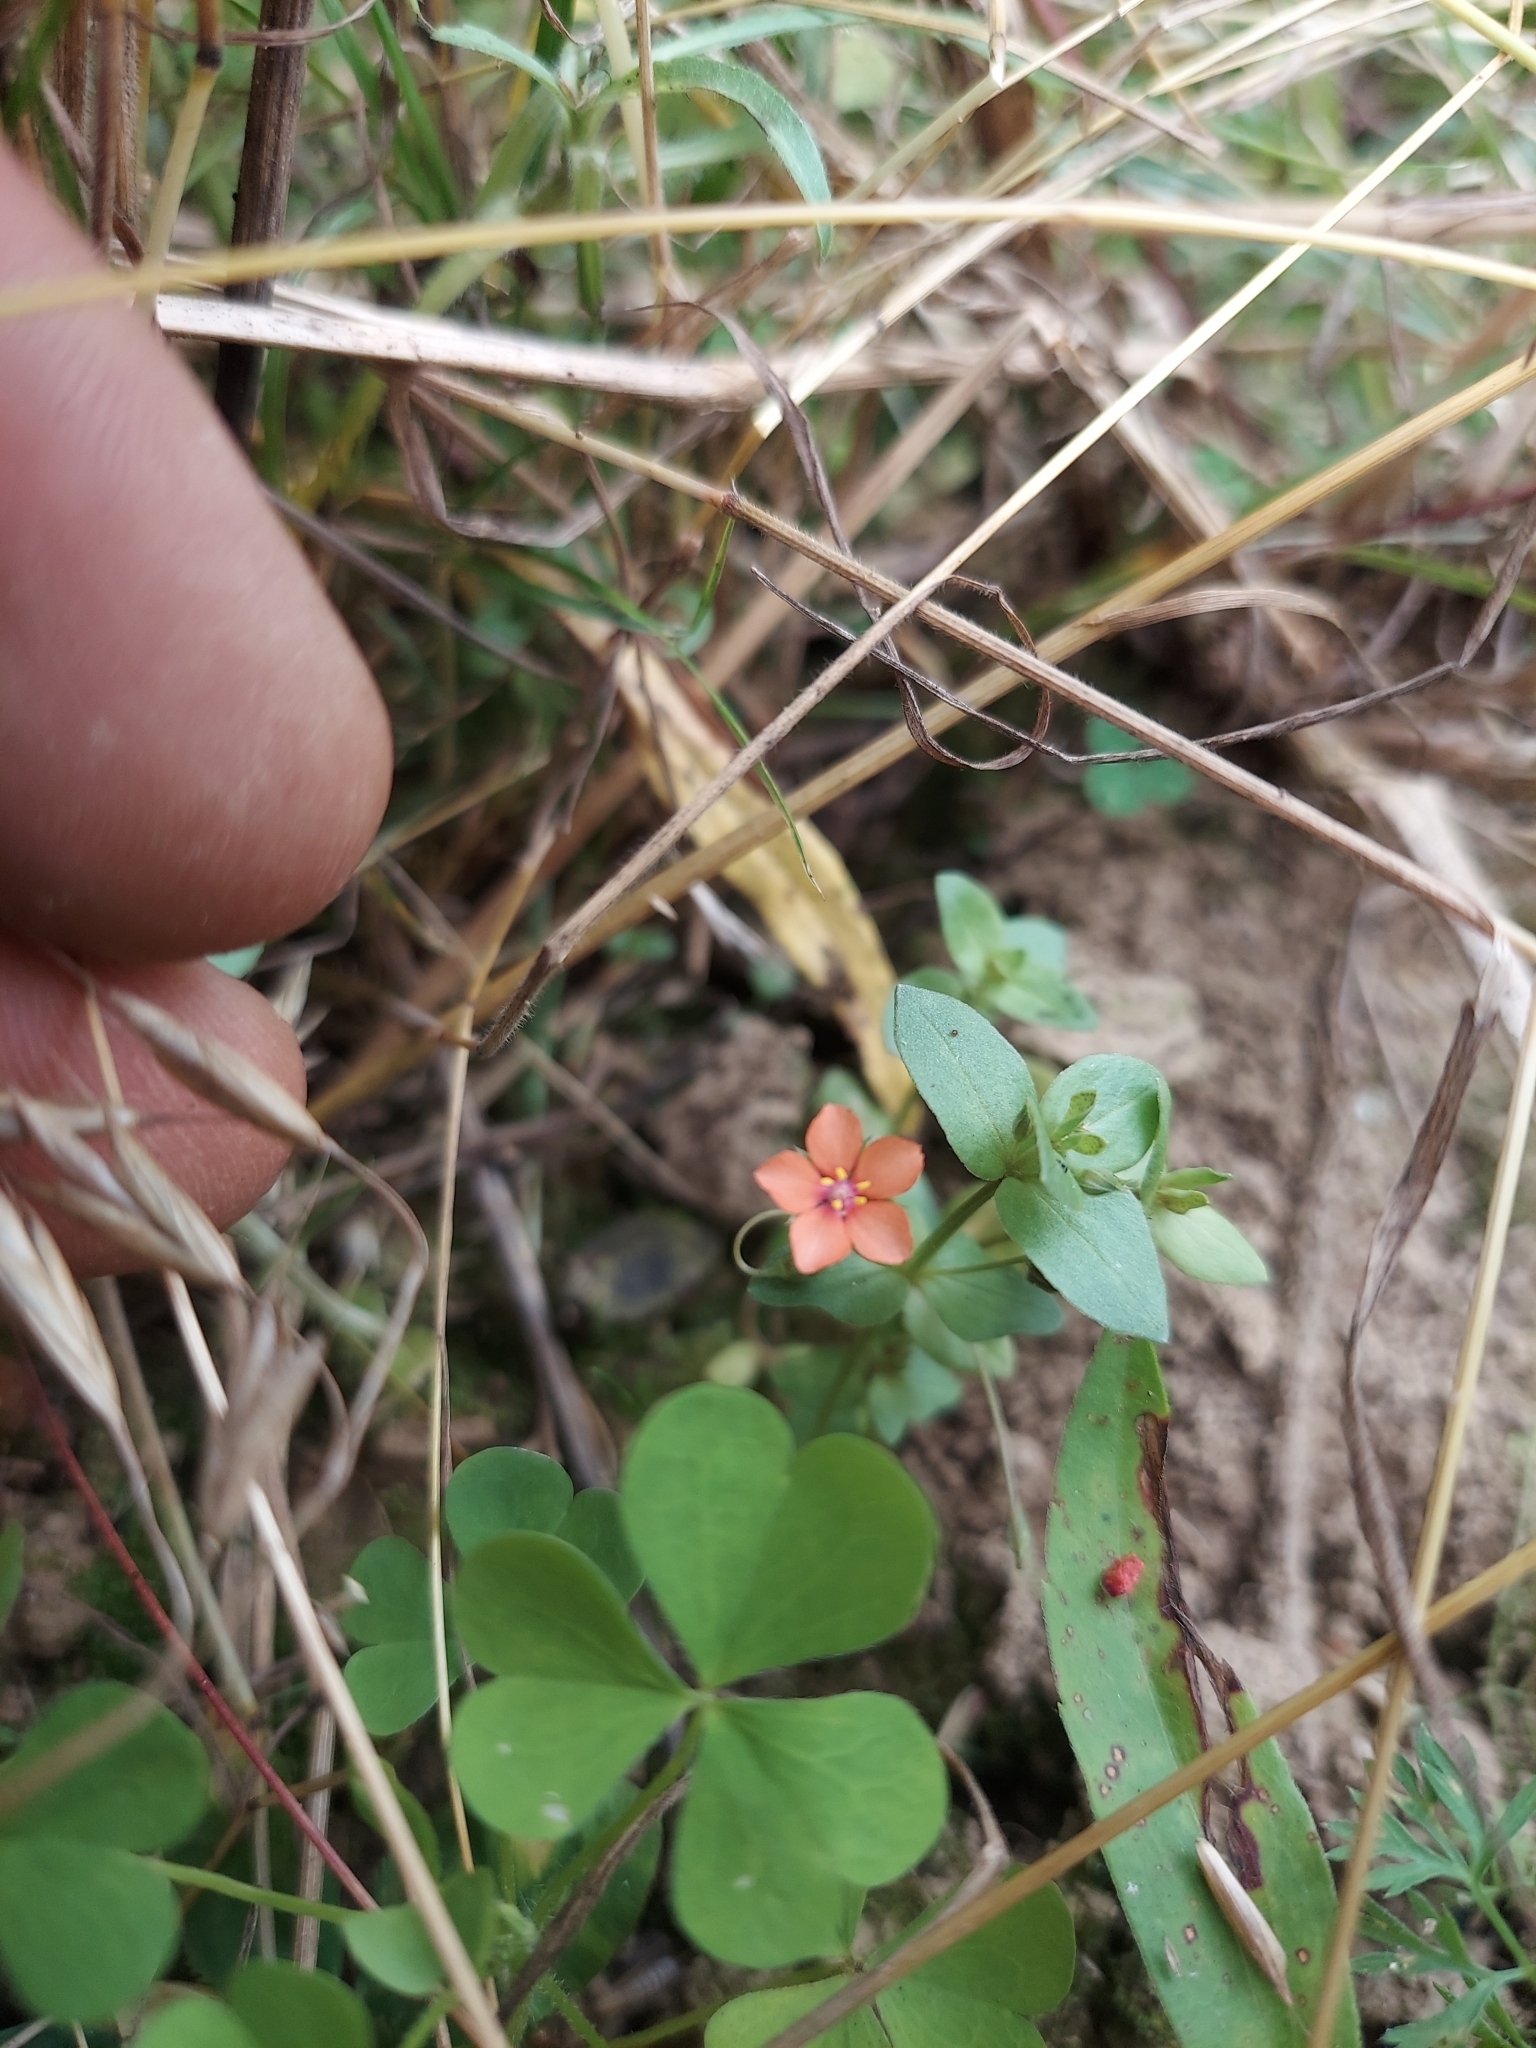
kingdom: Plantae
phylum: Tracheophyta
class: Magnoliopsida
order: Ericales
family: Primulaceae
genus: Lysimachia
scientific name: Lysimachia arvensis
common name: Scarlet pimpernel
